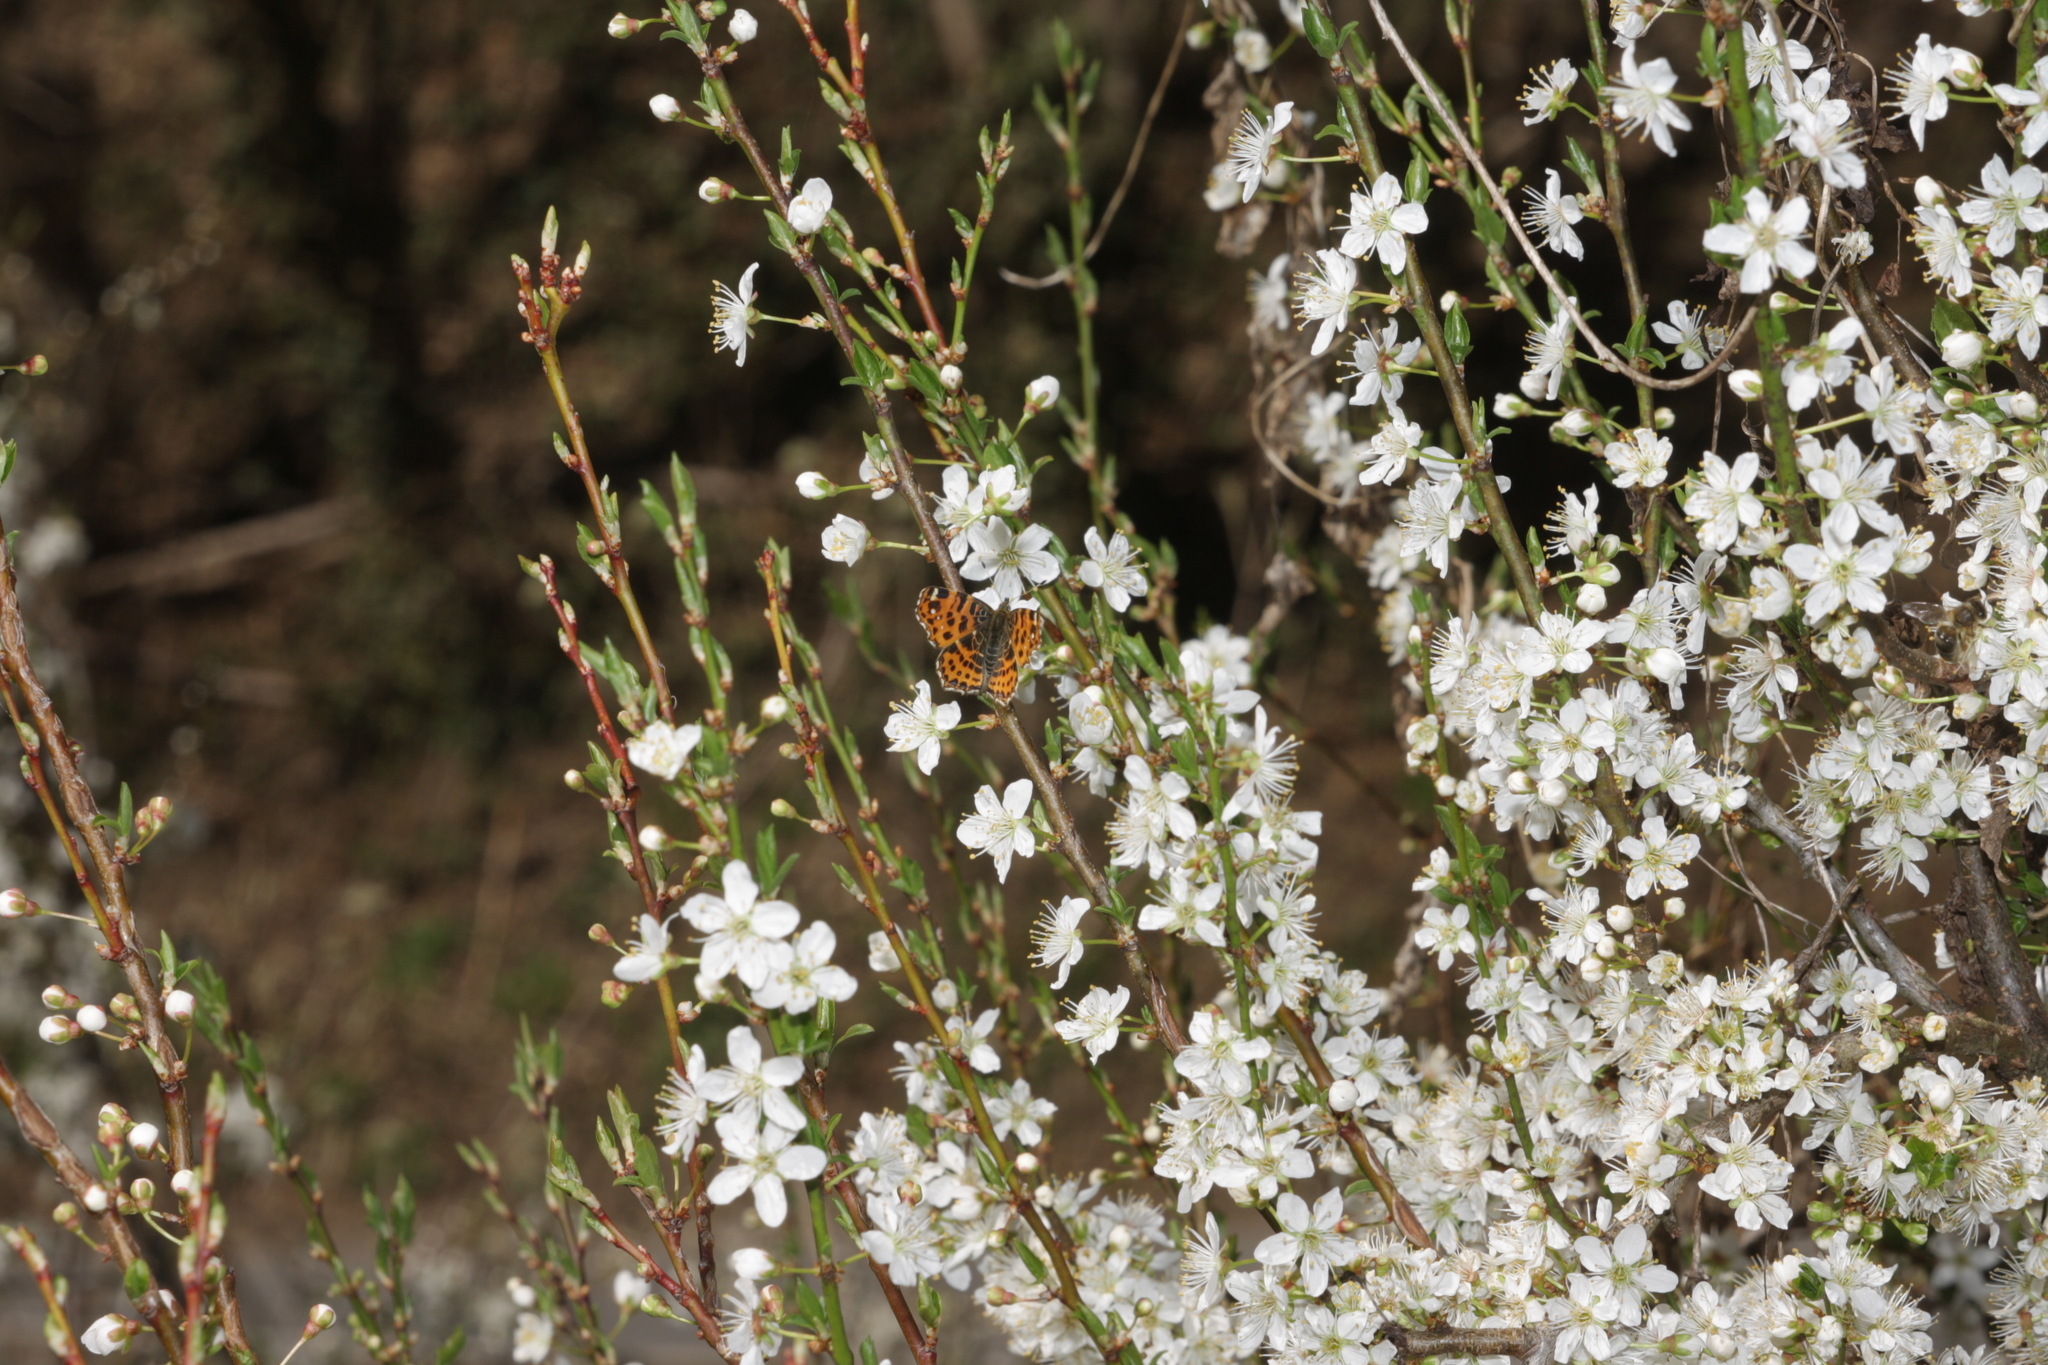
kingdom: Animalia
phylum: Arthropoda
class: Insecta
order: Lepidoptera
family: Nymphalidae
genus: Araschnia
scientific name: Araschnia levana
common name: Map butterfly
